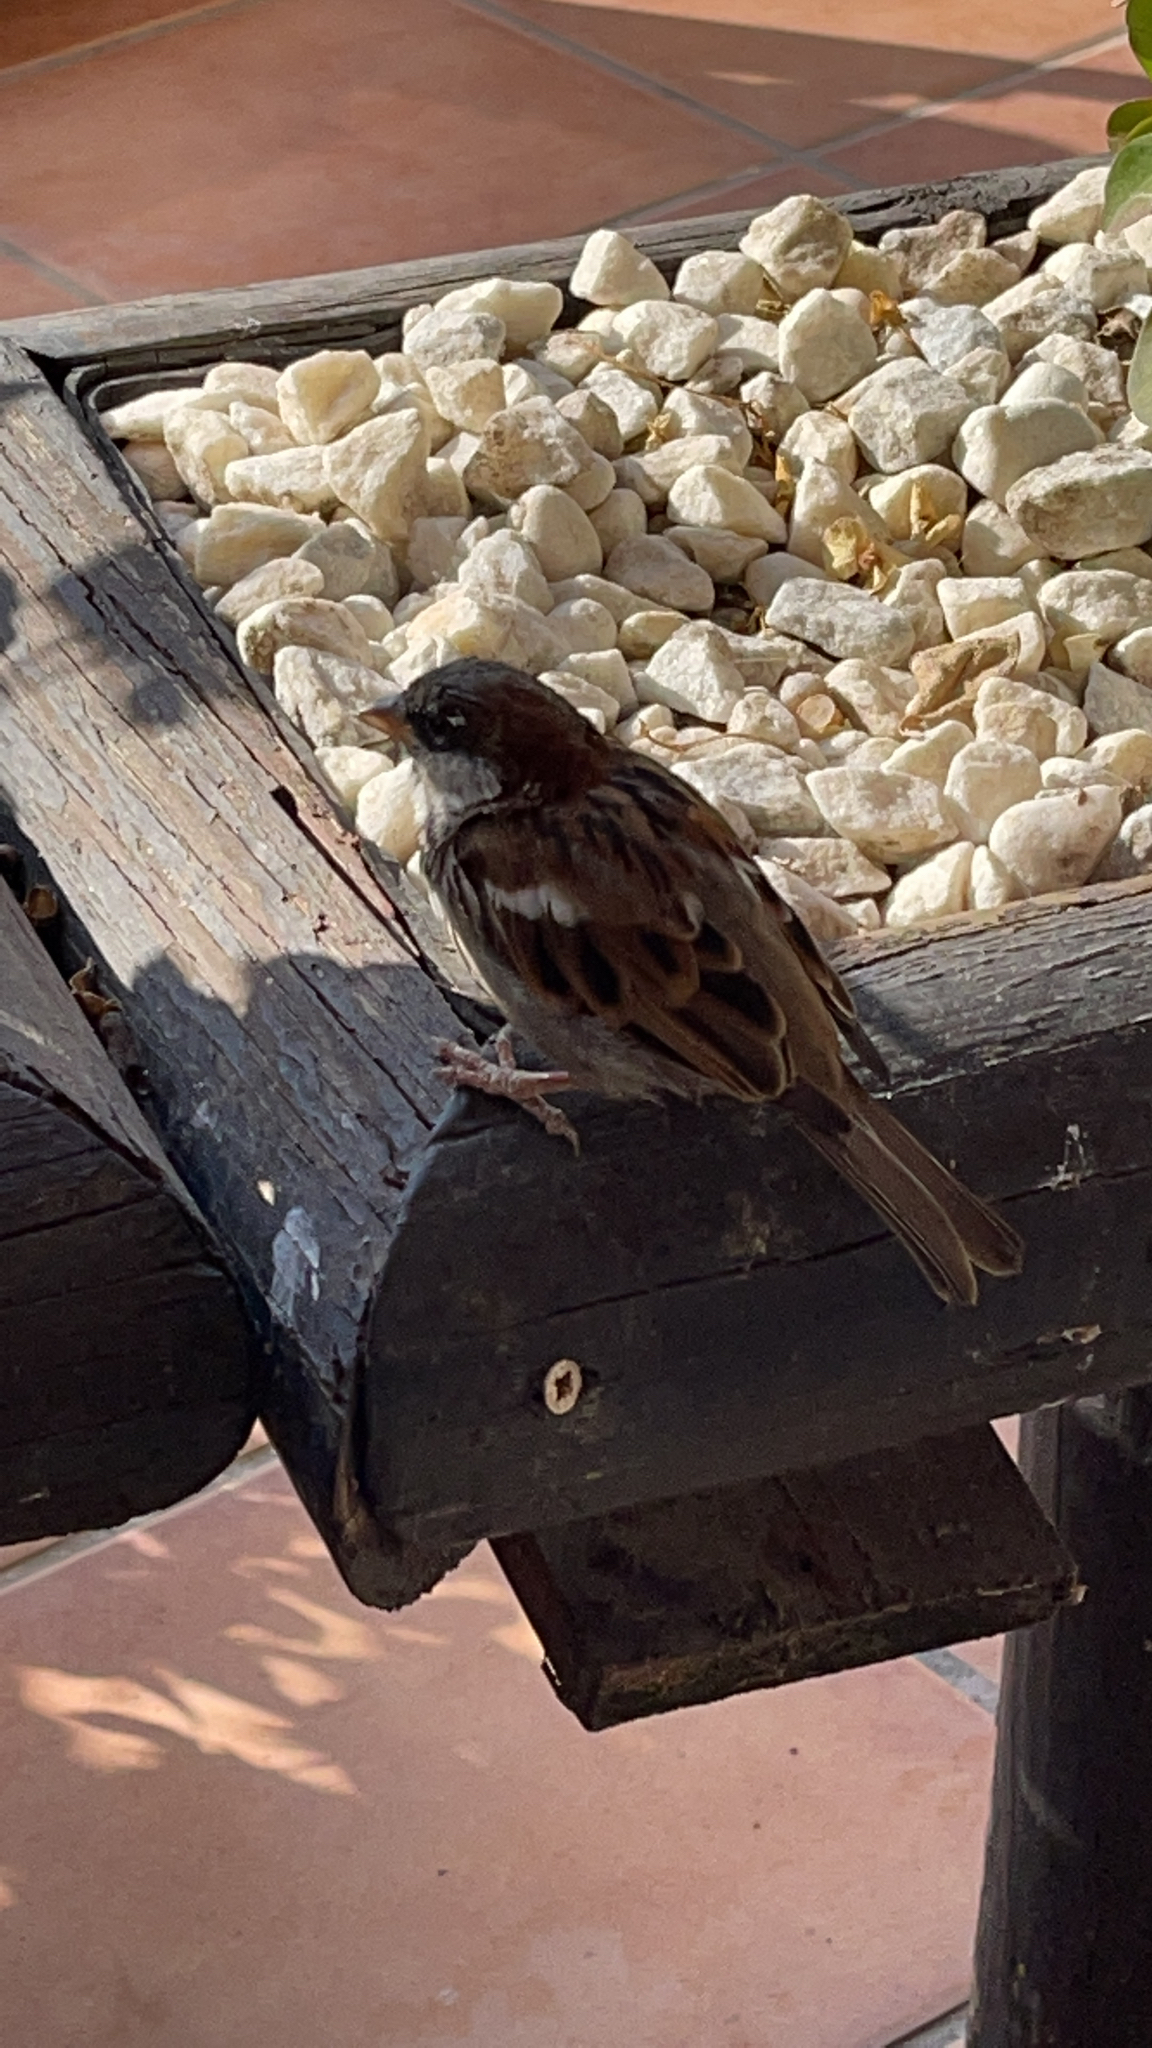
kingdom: Animalia
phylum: Chordata
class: Aves
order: Passeriformes
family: Passeridae
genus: Passer
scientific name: Passer domesticus
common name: House sparrow
